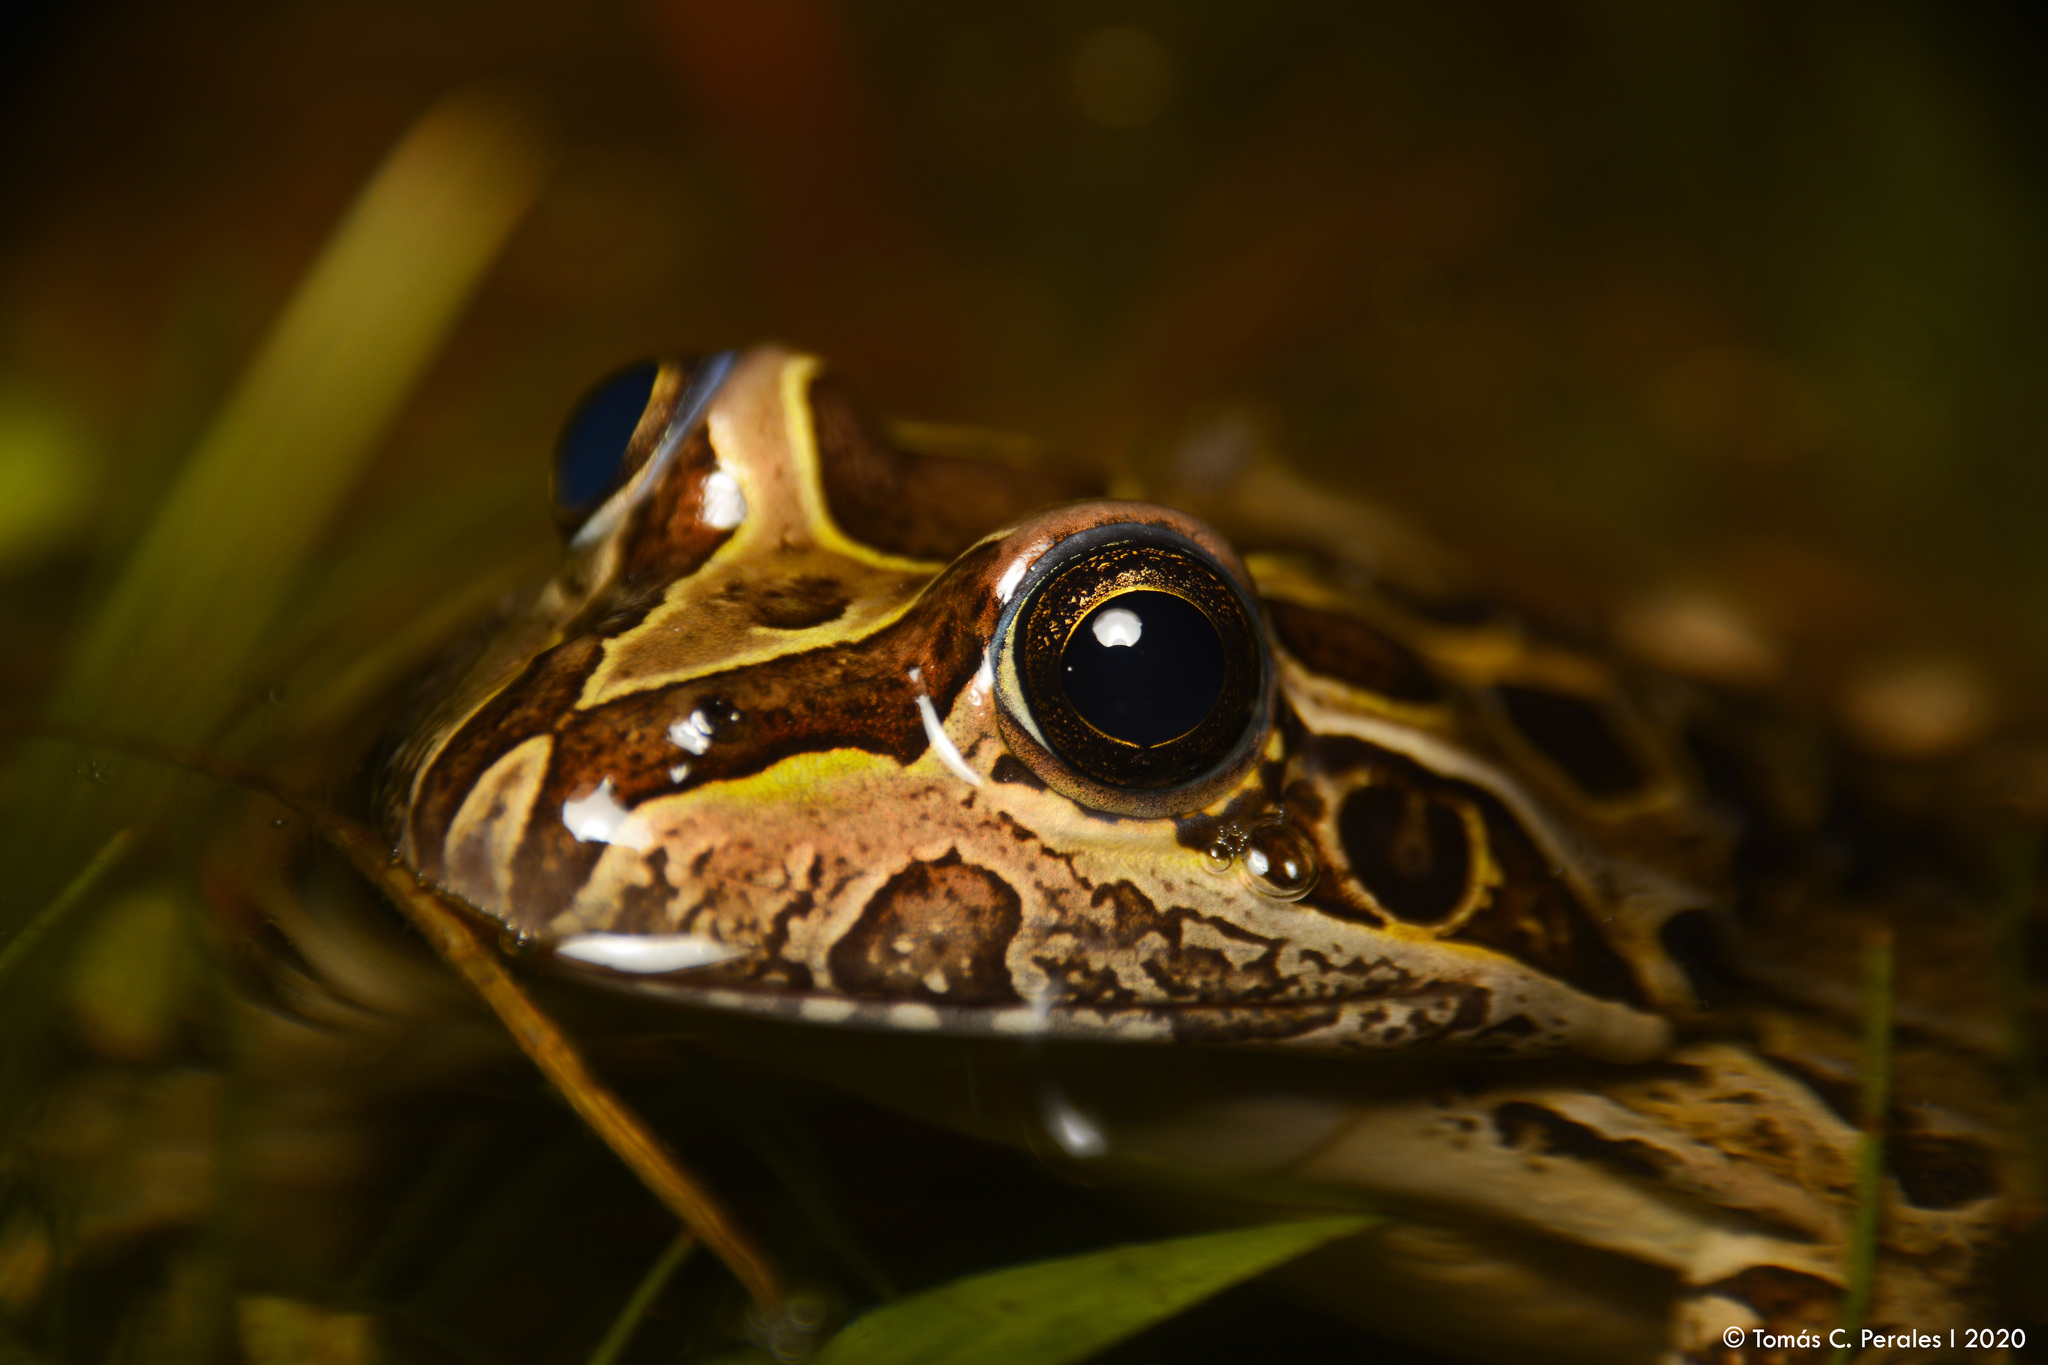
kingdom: Animalia
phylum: Chordata
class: Amphibia
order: Anura
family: Leptodactylidae
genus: Leptodactylus
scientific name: Leptodactylus luctator
